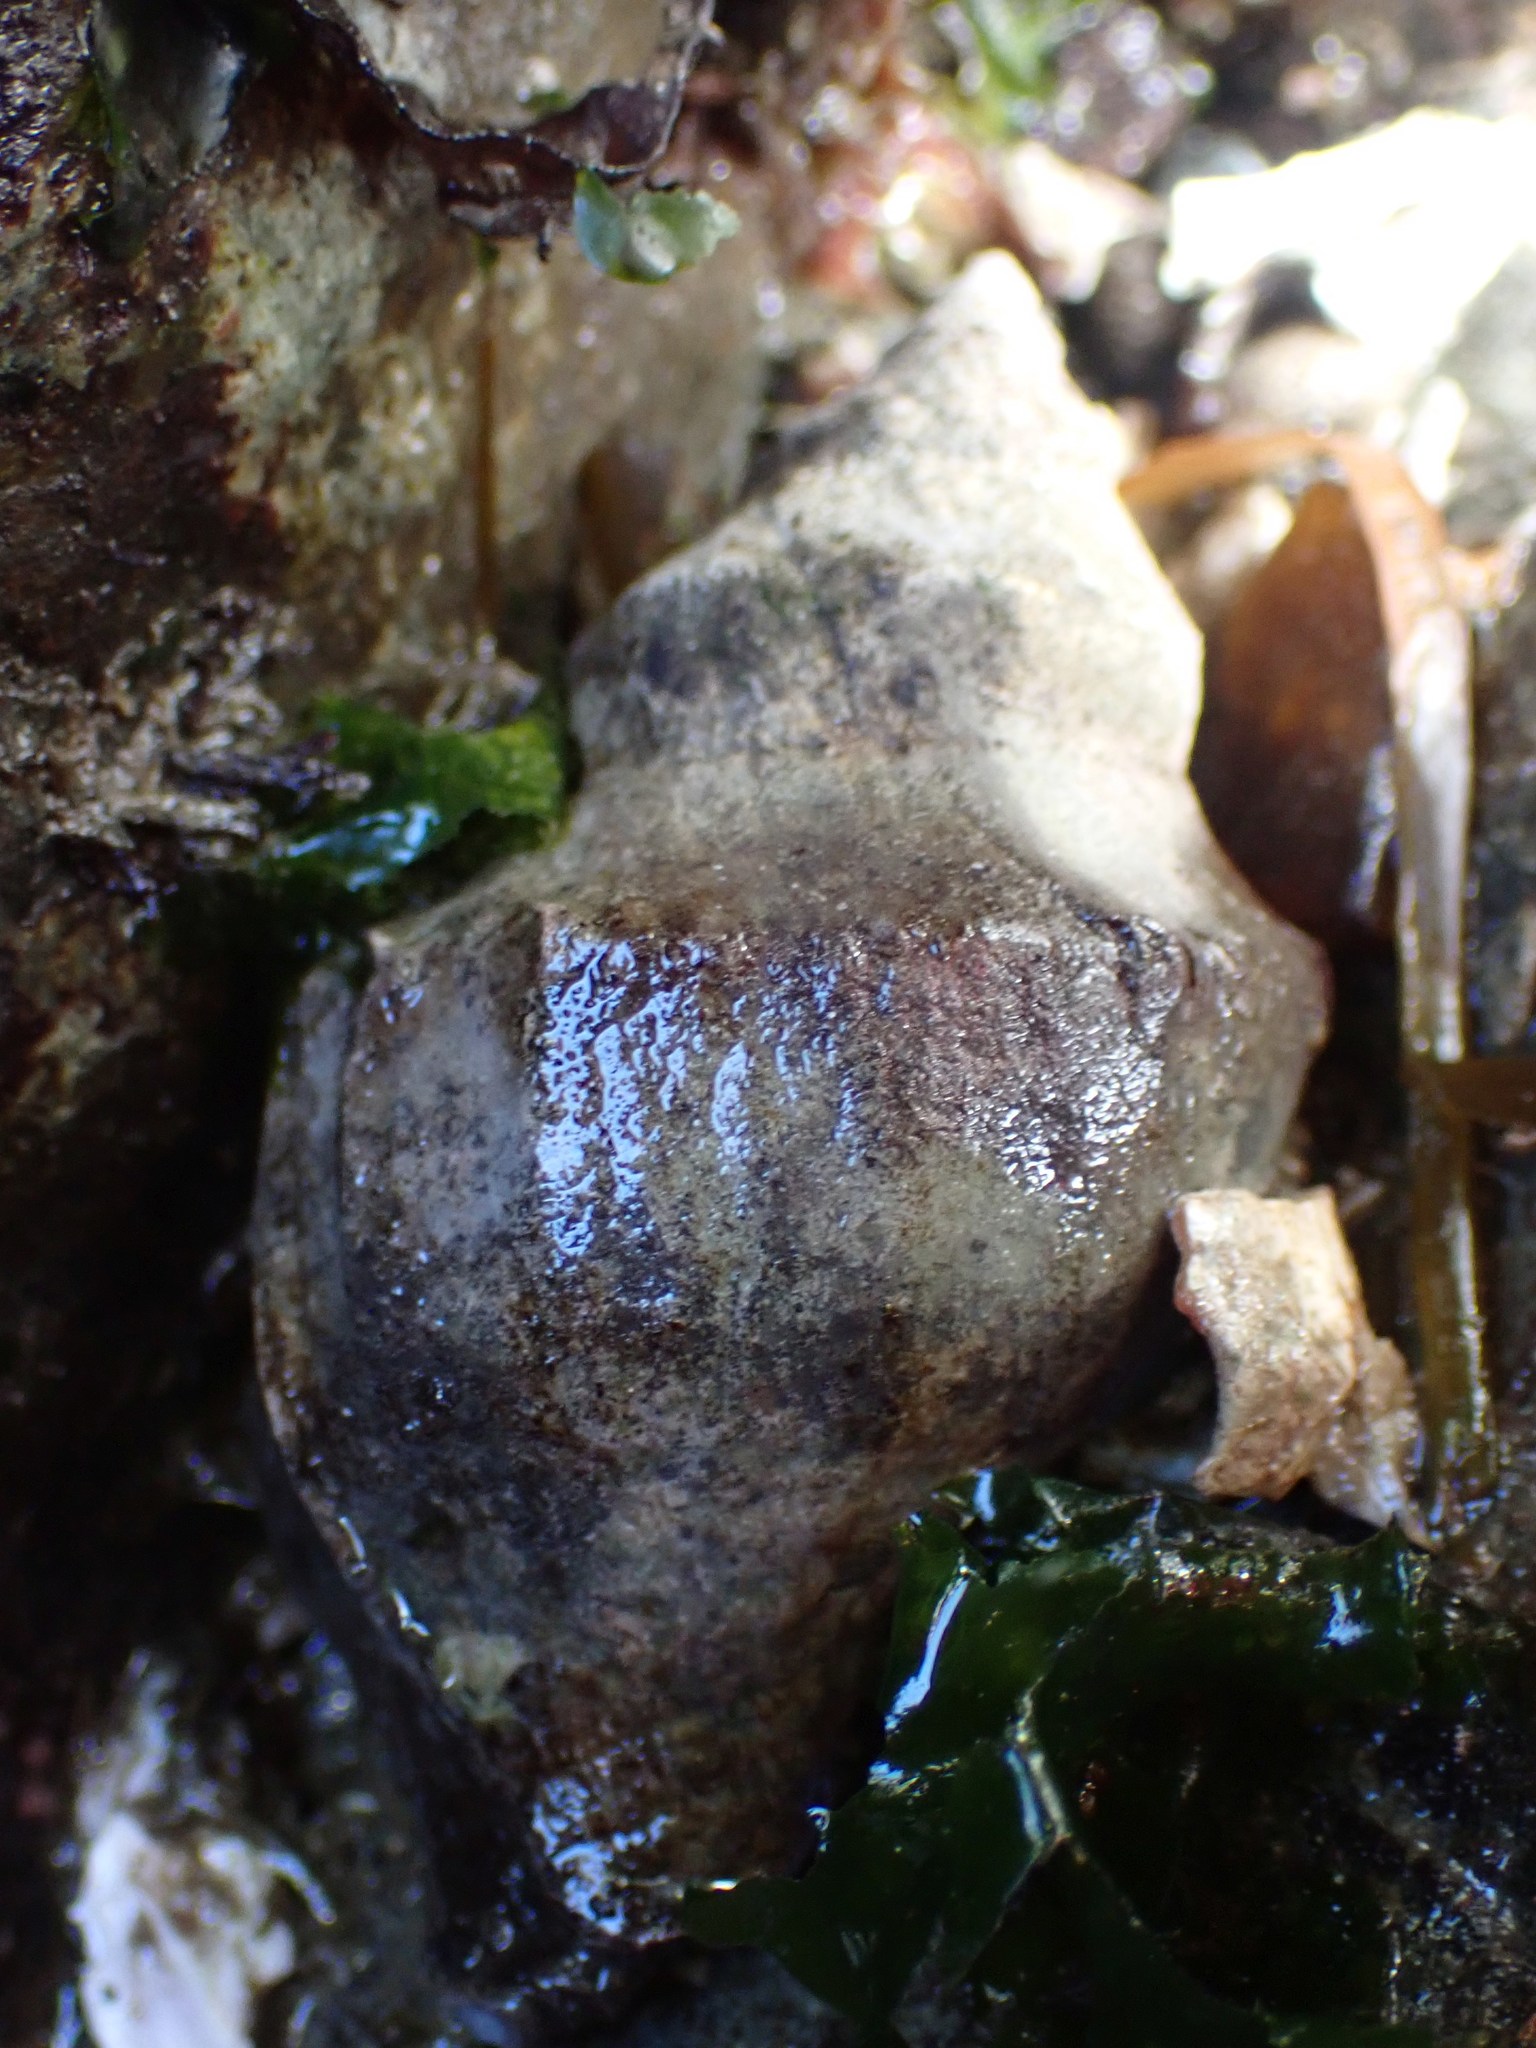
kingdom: Animalia
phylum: Mollusca
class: Gastropoda
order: Neogastropoda
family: Muricidae
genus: Nucella
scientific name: Nucella lamellosa
